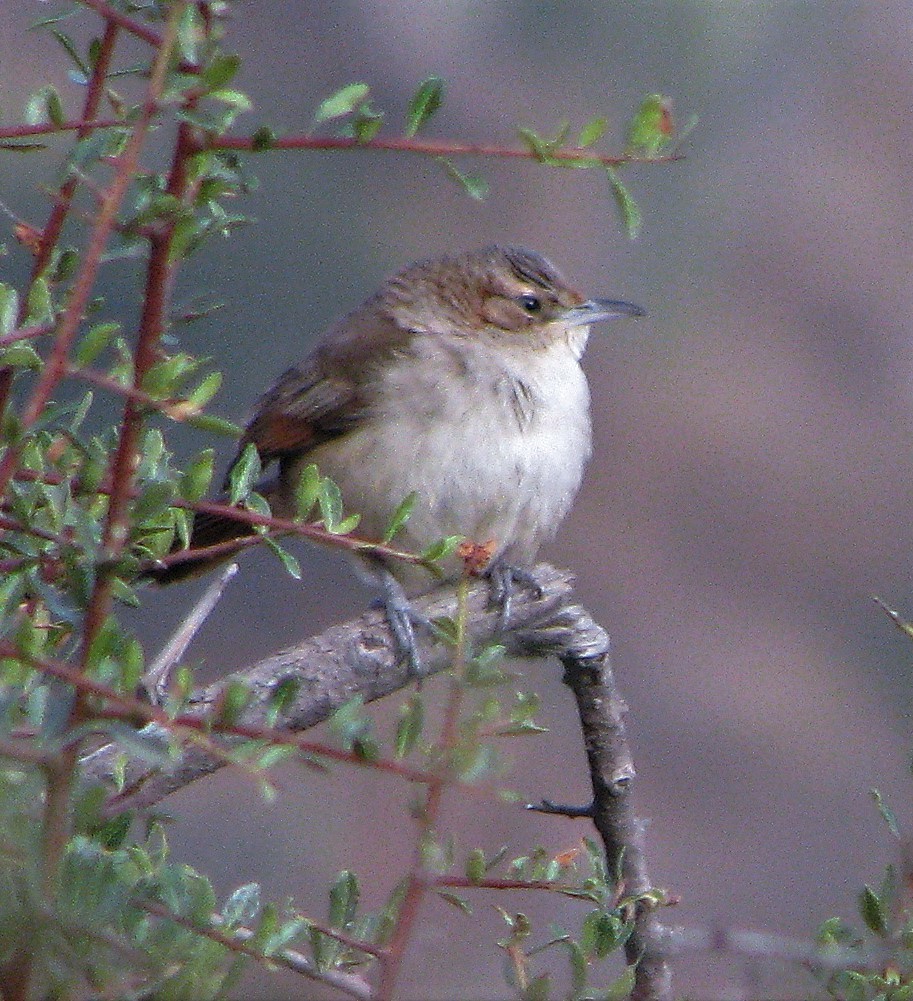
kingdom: Animalia
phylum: Chordata
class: Aves
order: Passeriformes
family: Furnariidae
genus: Phacellodomus
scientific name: Phacellodomus striaticeps
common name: Streak-fronted thornbird
